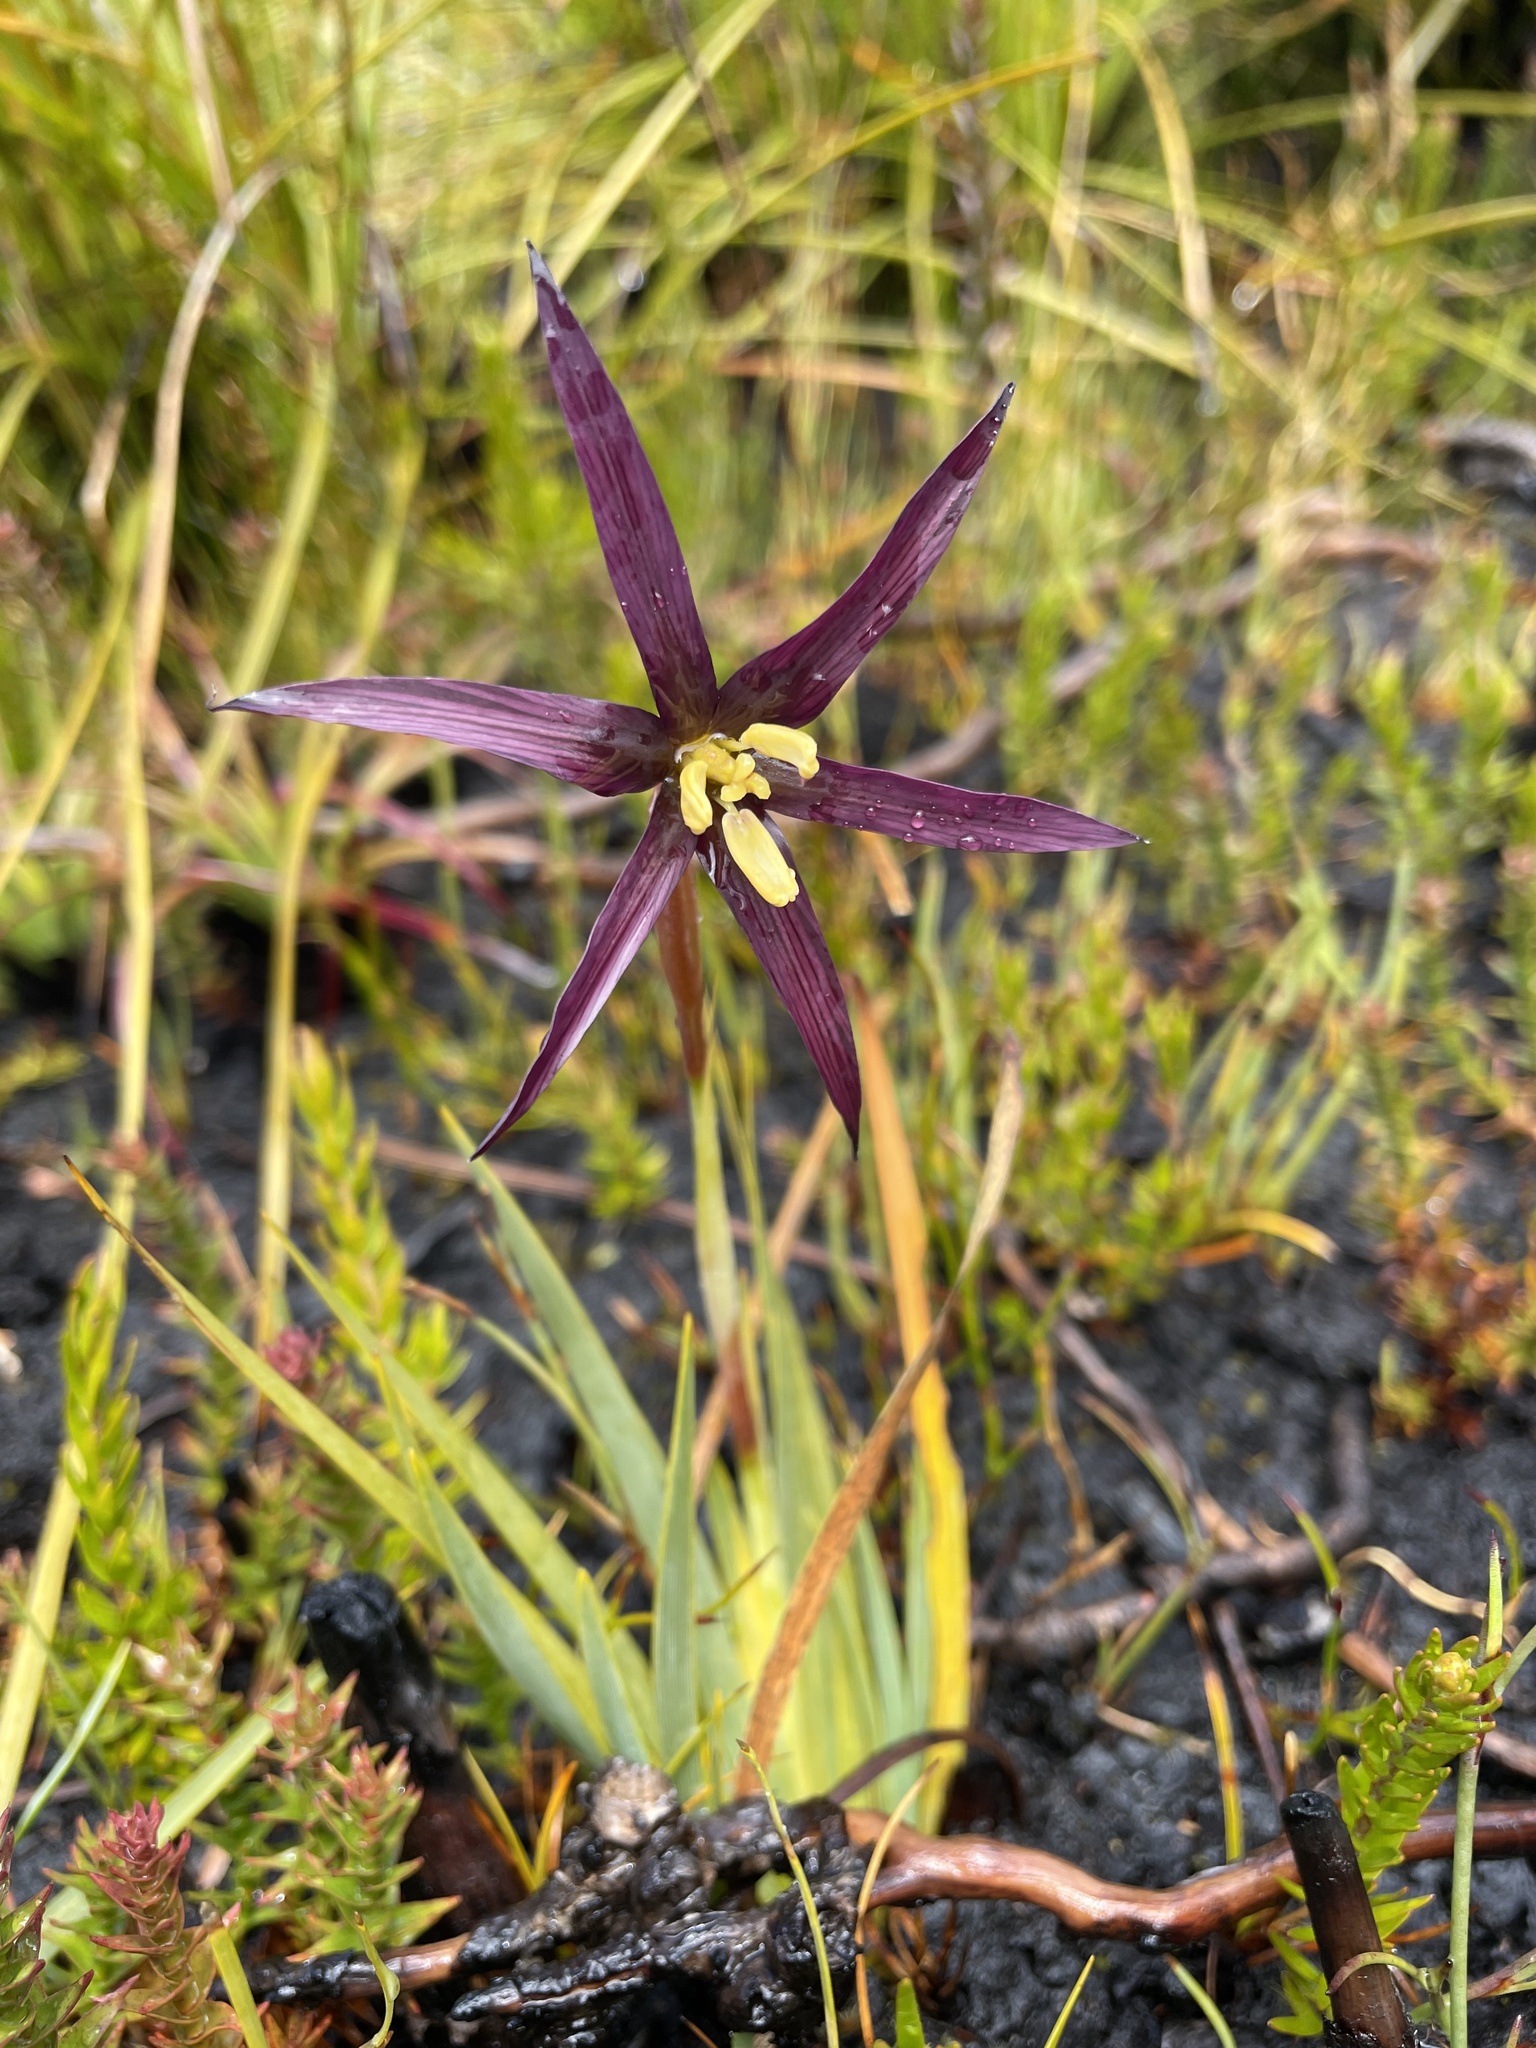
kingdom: Plantae
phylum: Tracheophyta
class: Liliopsida
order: Asparagales
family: Iridaceae
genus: Isophysis
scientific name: Isophysis tasmanica
